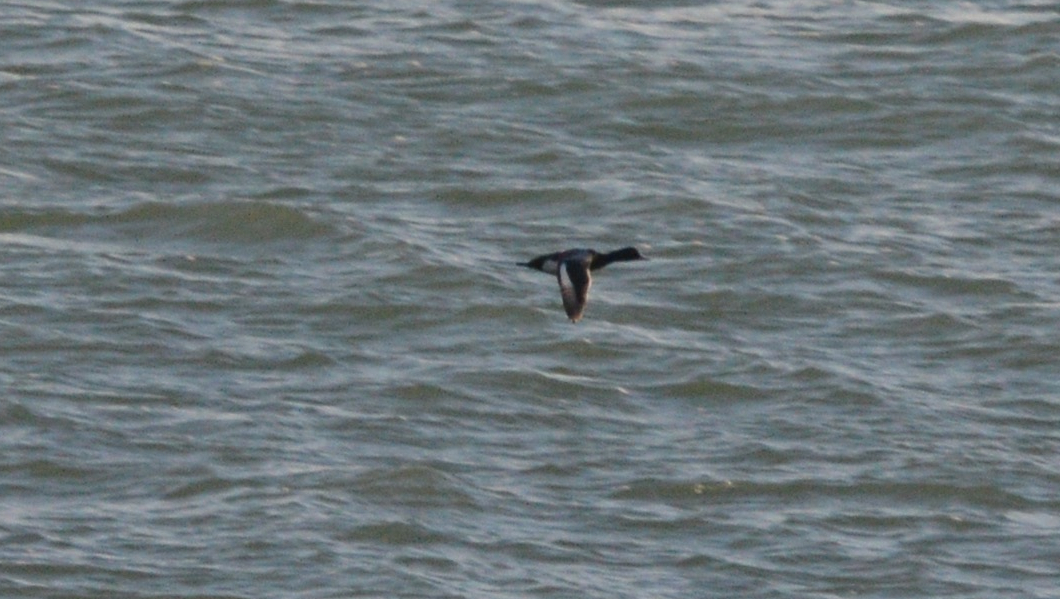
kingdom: Animalia
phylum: Chordata
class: Aves
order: Anseriformes
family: Anatidae
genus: Aythya
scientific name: Aythya affinis
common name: Lesser scaup
